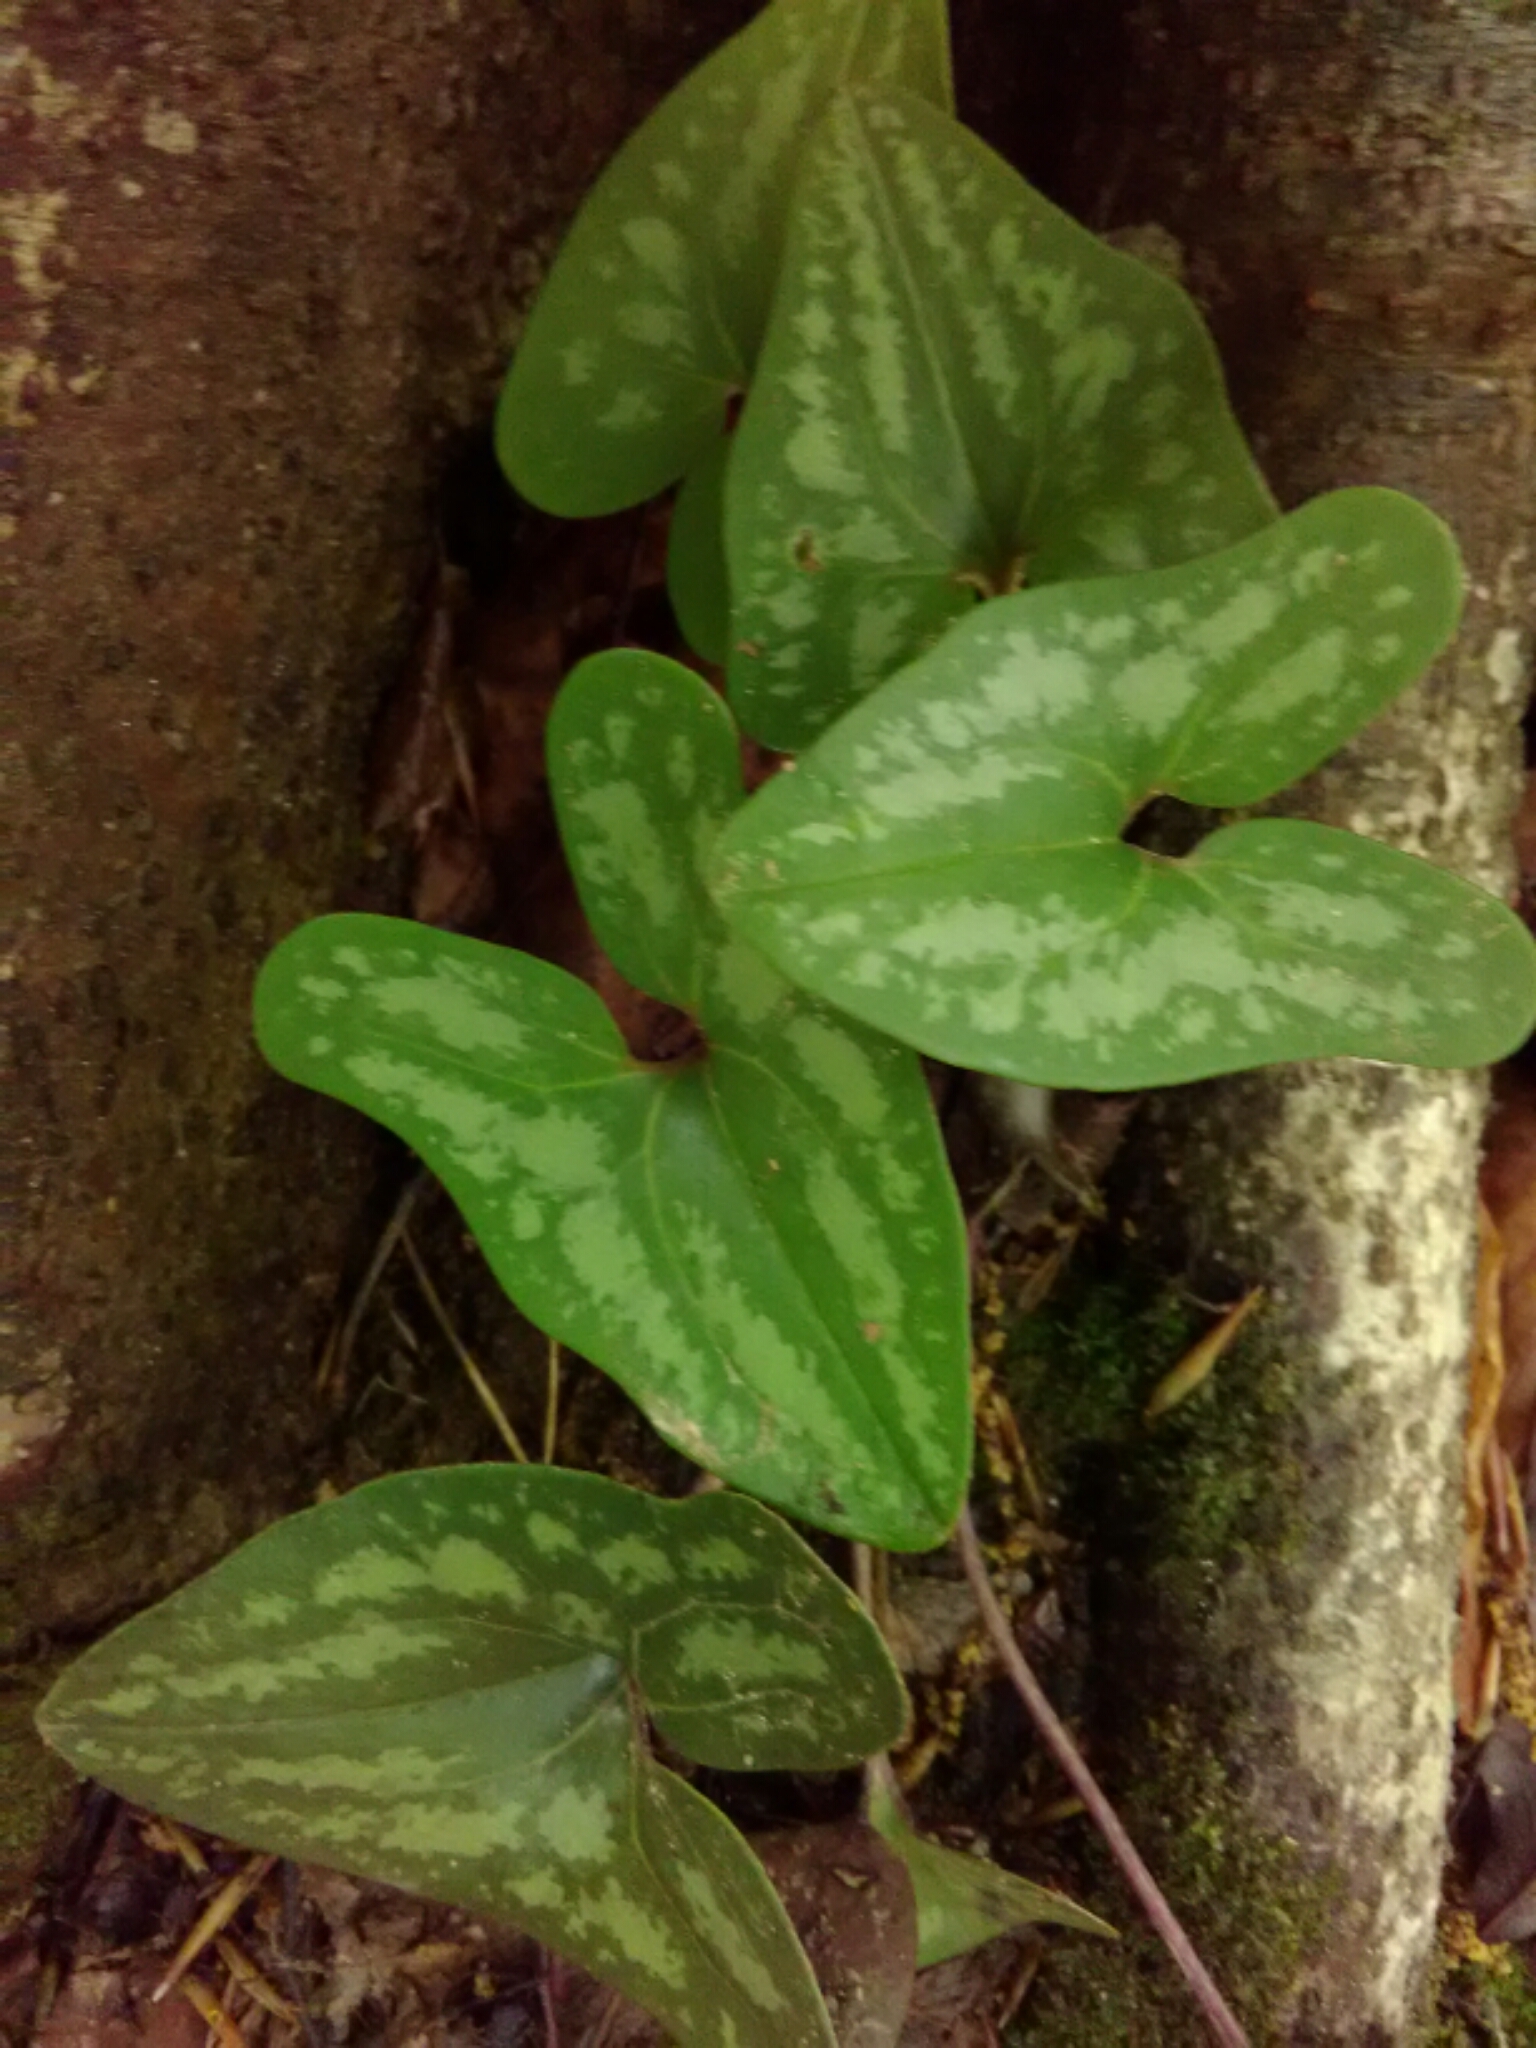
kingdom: Plantae
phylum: Tracheophyta
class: Magnoliopsida
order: Piperales
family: Aristolochiaceae
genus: Hexastylis
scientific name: Hexastylis arifolia
